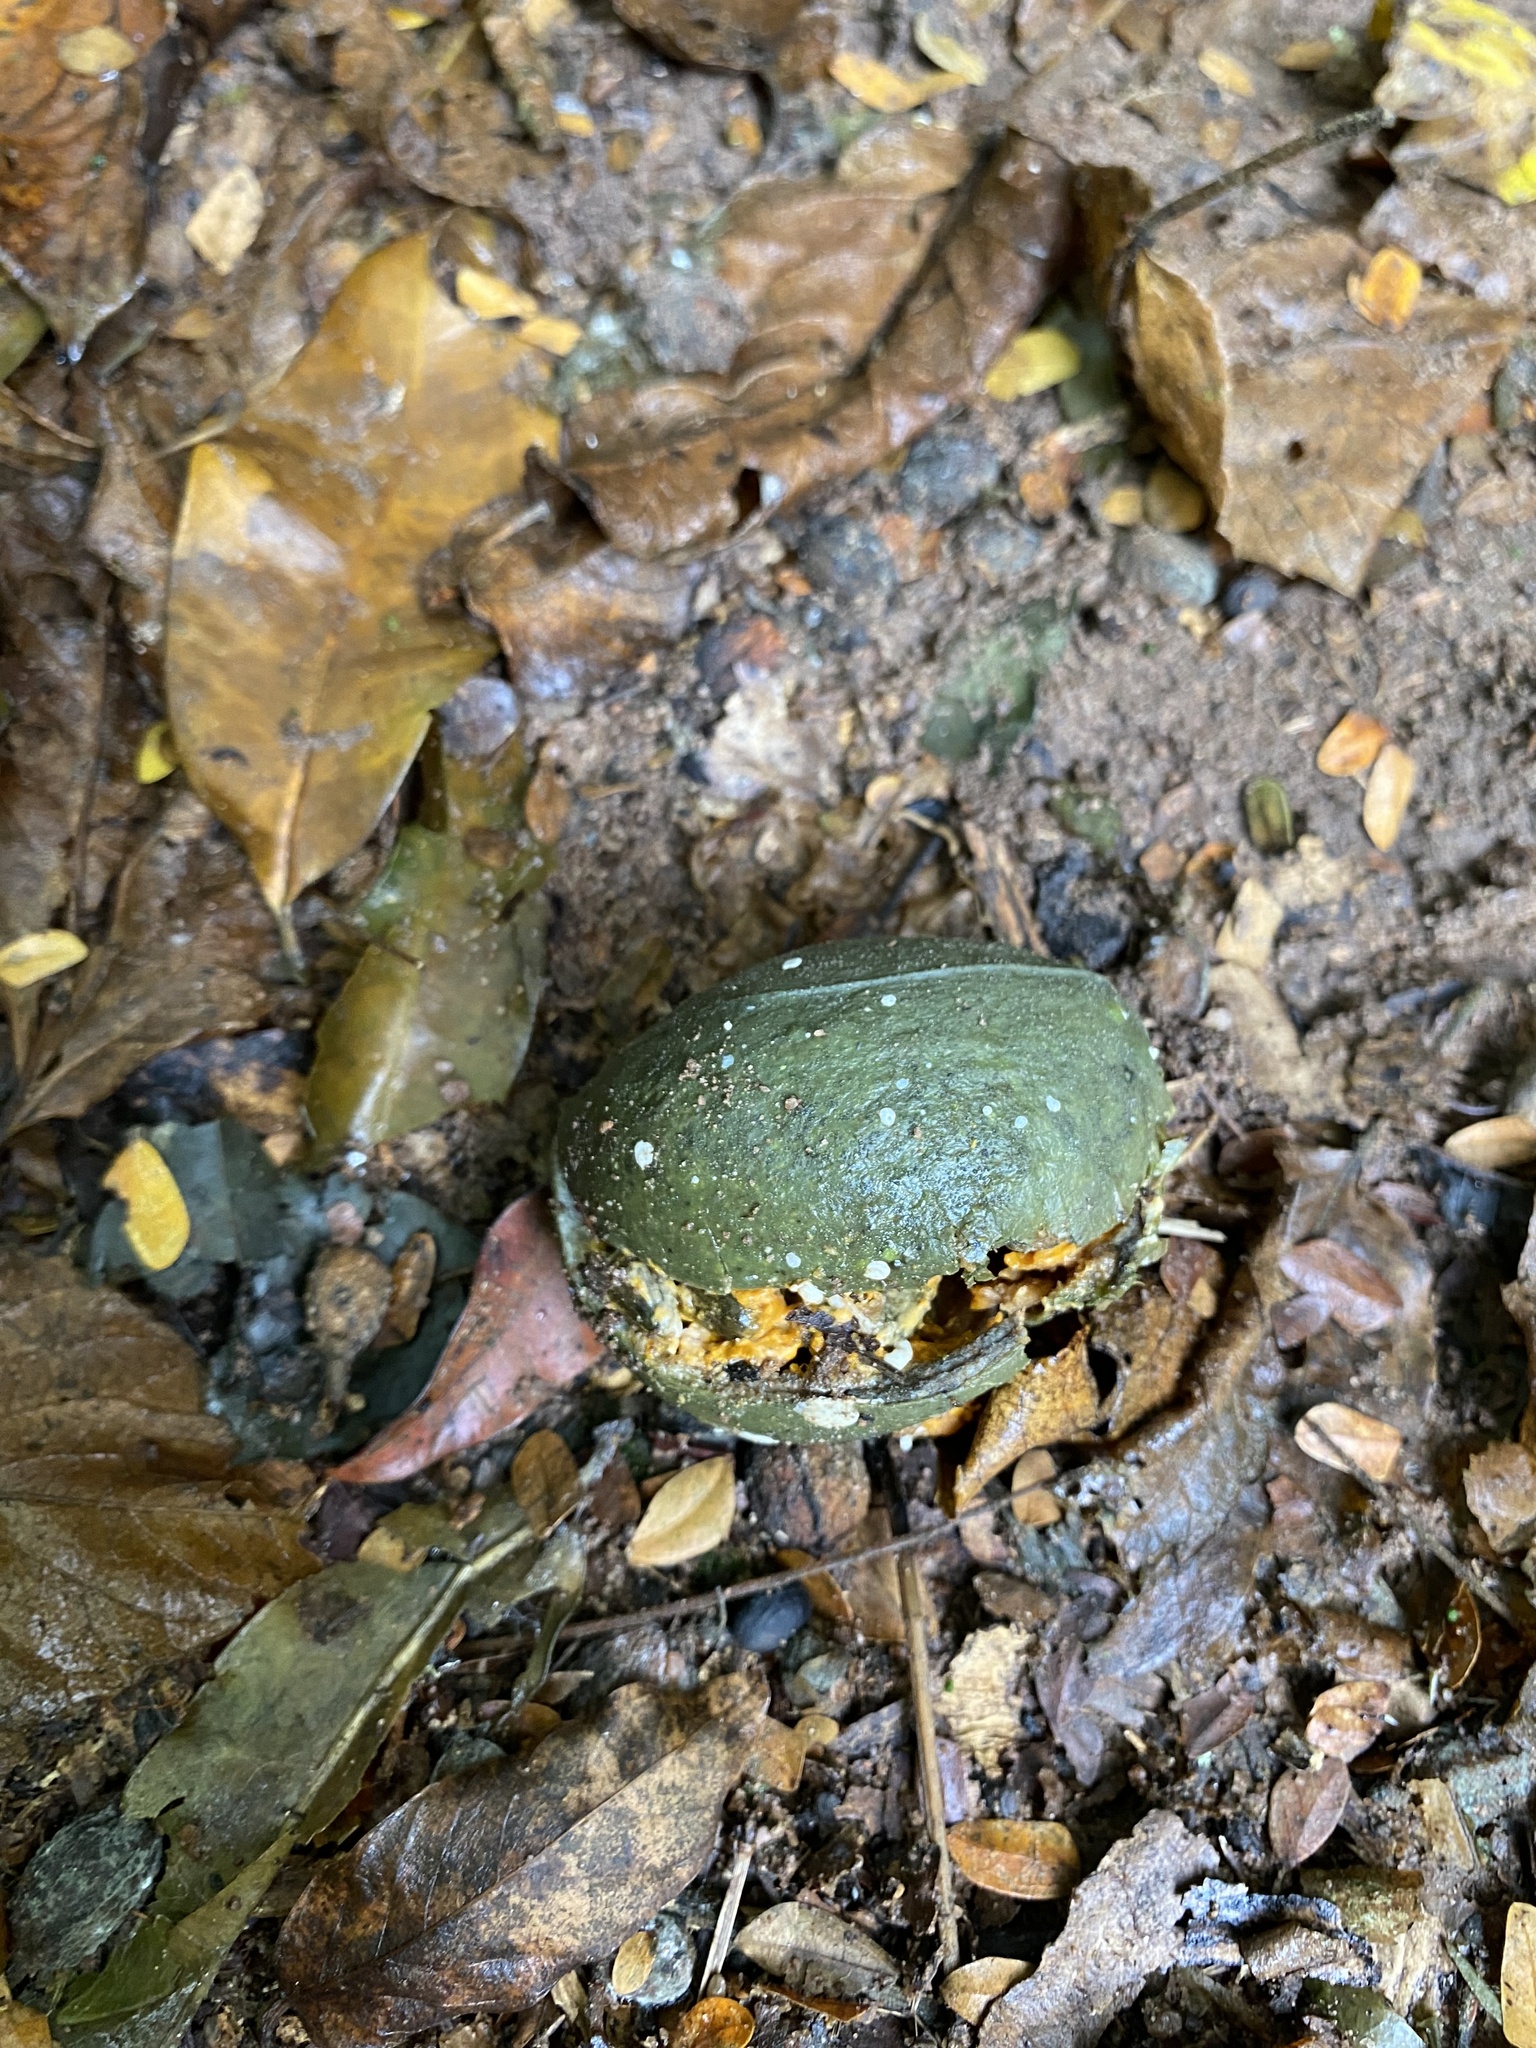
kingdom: Plantae
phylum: Tracheophyta
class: Magnoliopsida
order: Gentianales
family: Apocynaceae
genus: Tabernaemontana
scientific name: Tabernaemontana ventricosa
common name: Forest toad-tree
